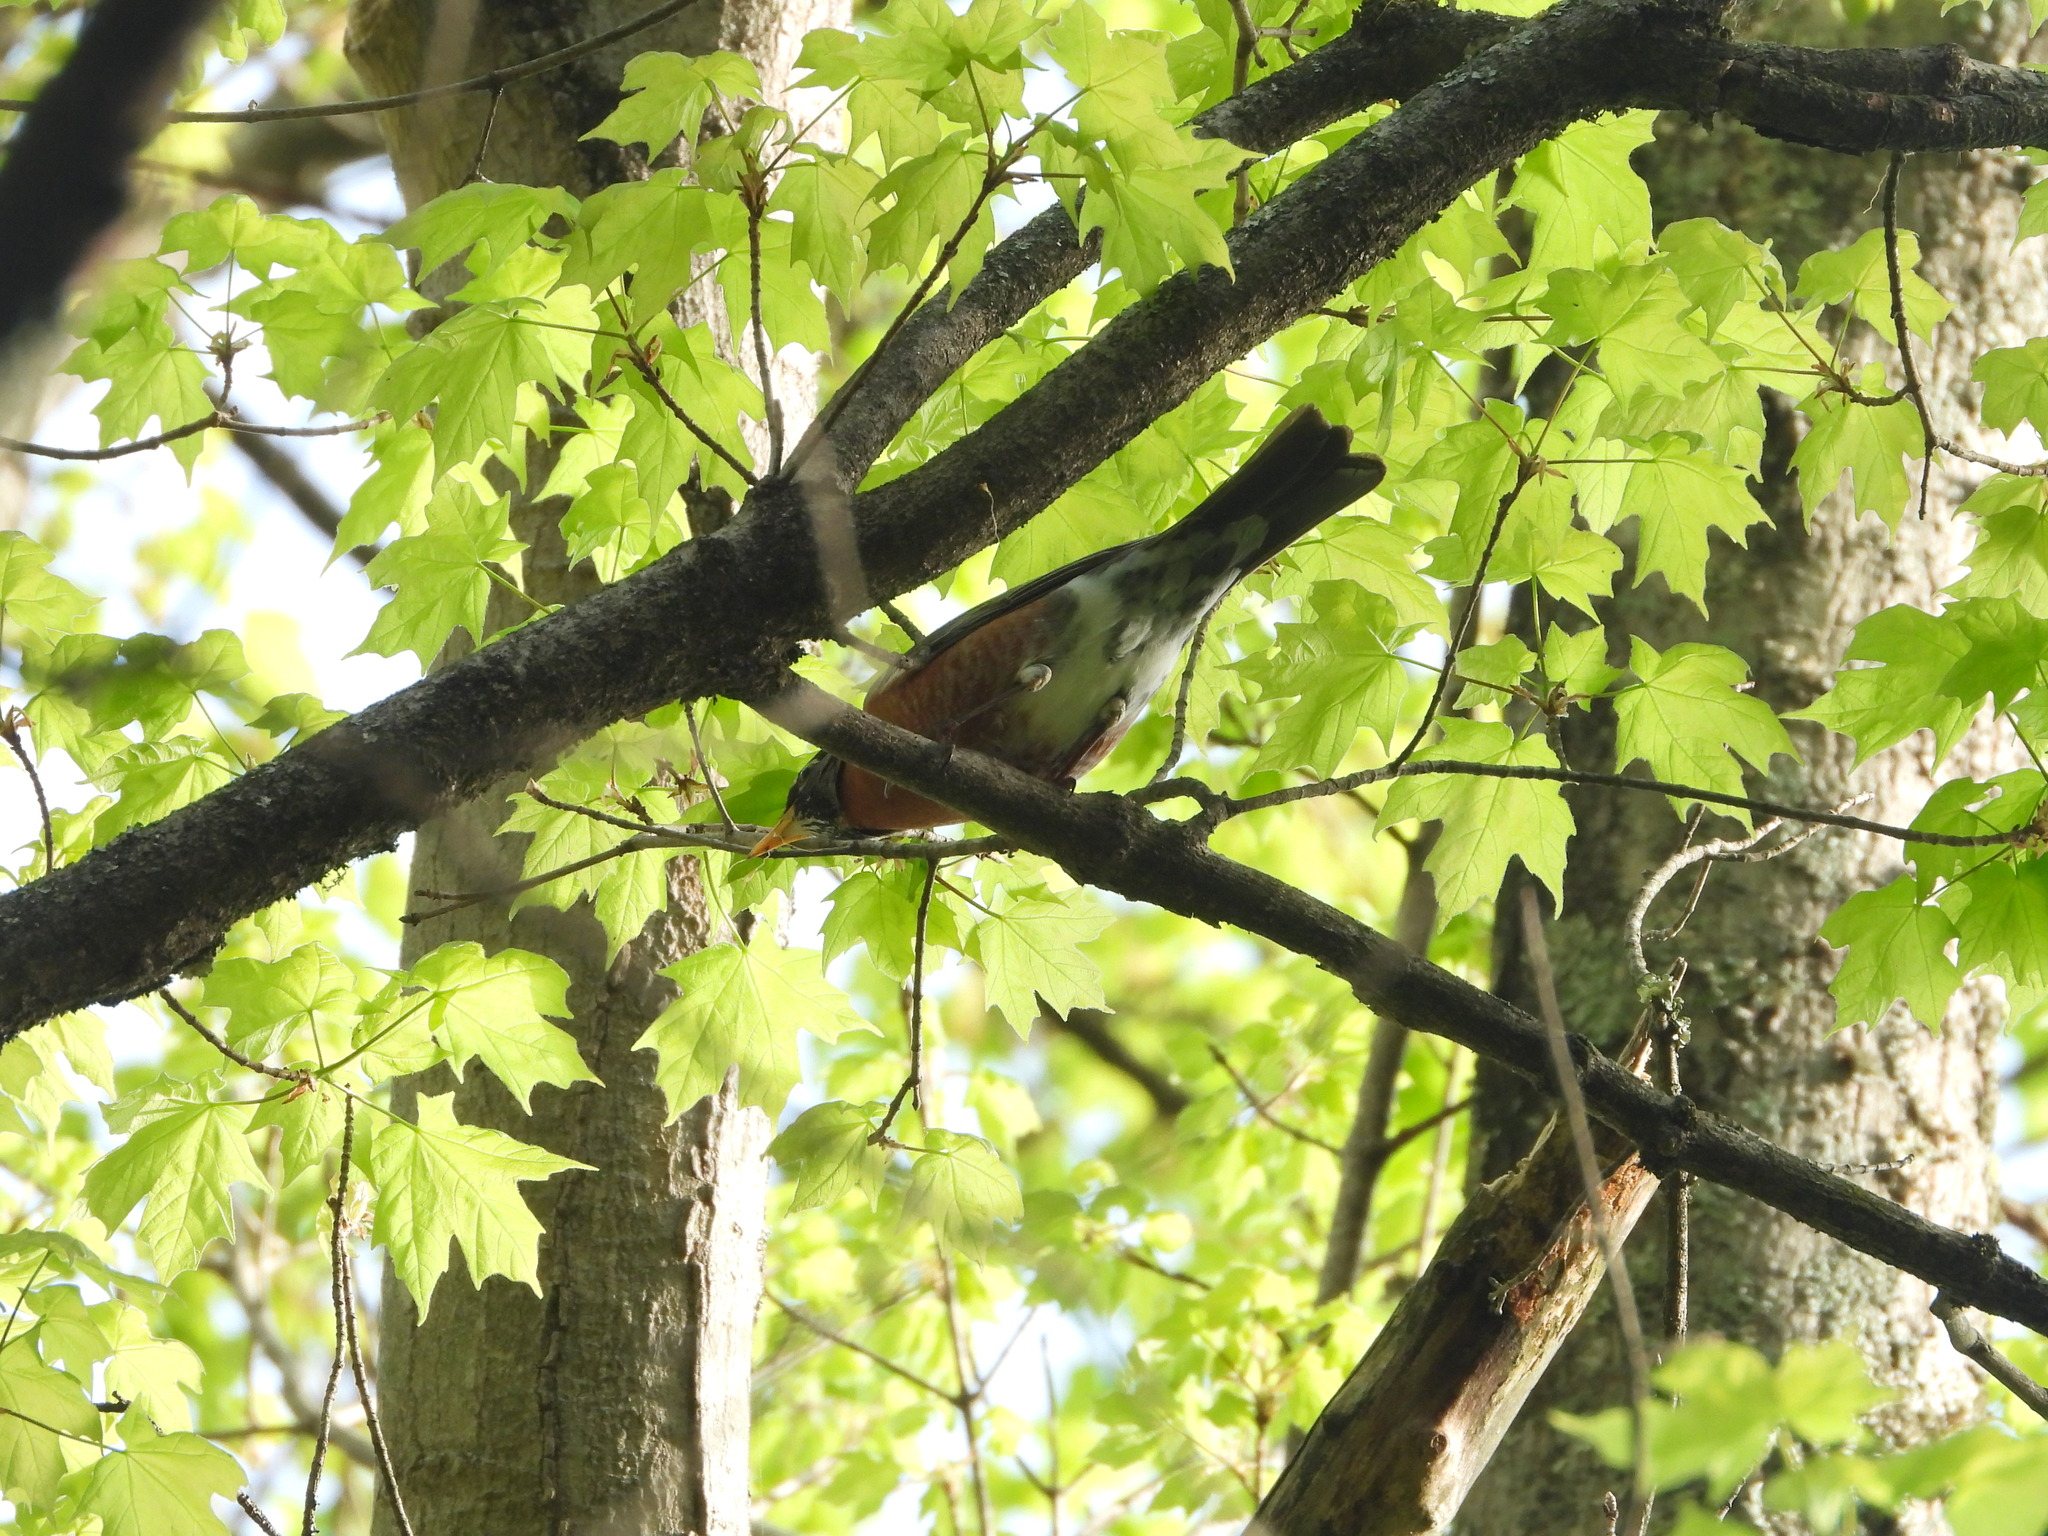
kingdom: Animalia
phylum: Chordata
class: Aves
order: Passeriformes
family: Turdidae
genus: Turdus
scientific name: Turdus migratorius
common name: American robin
